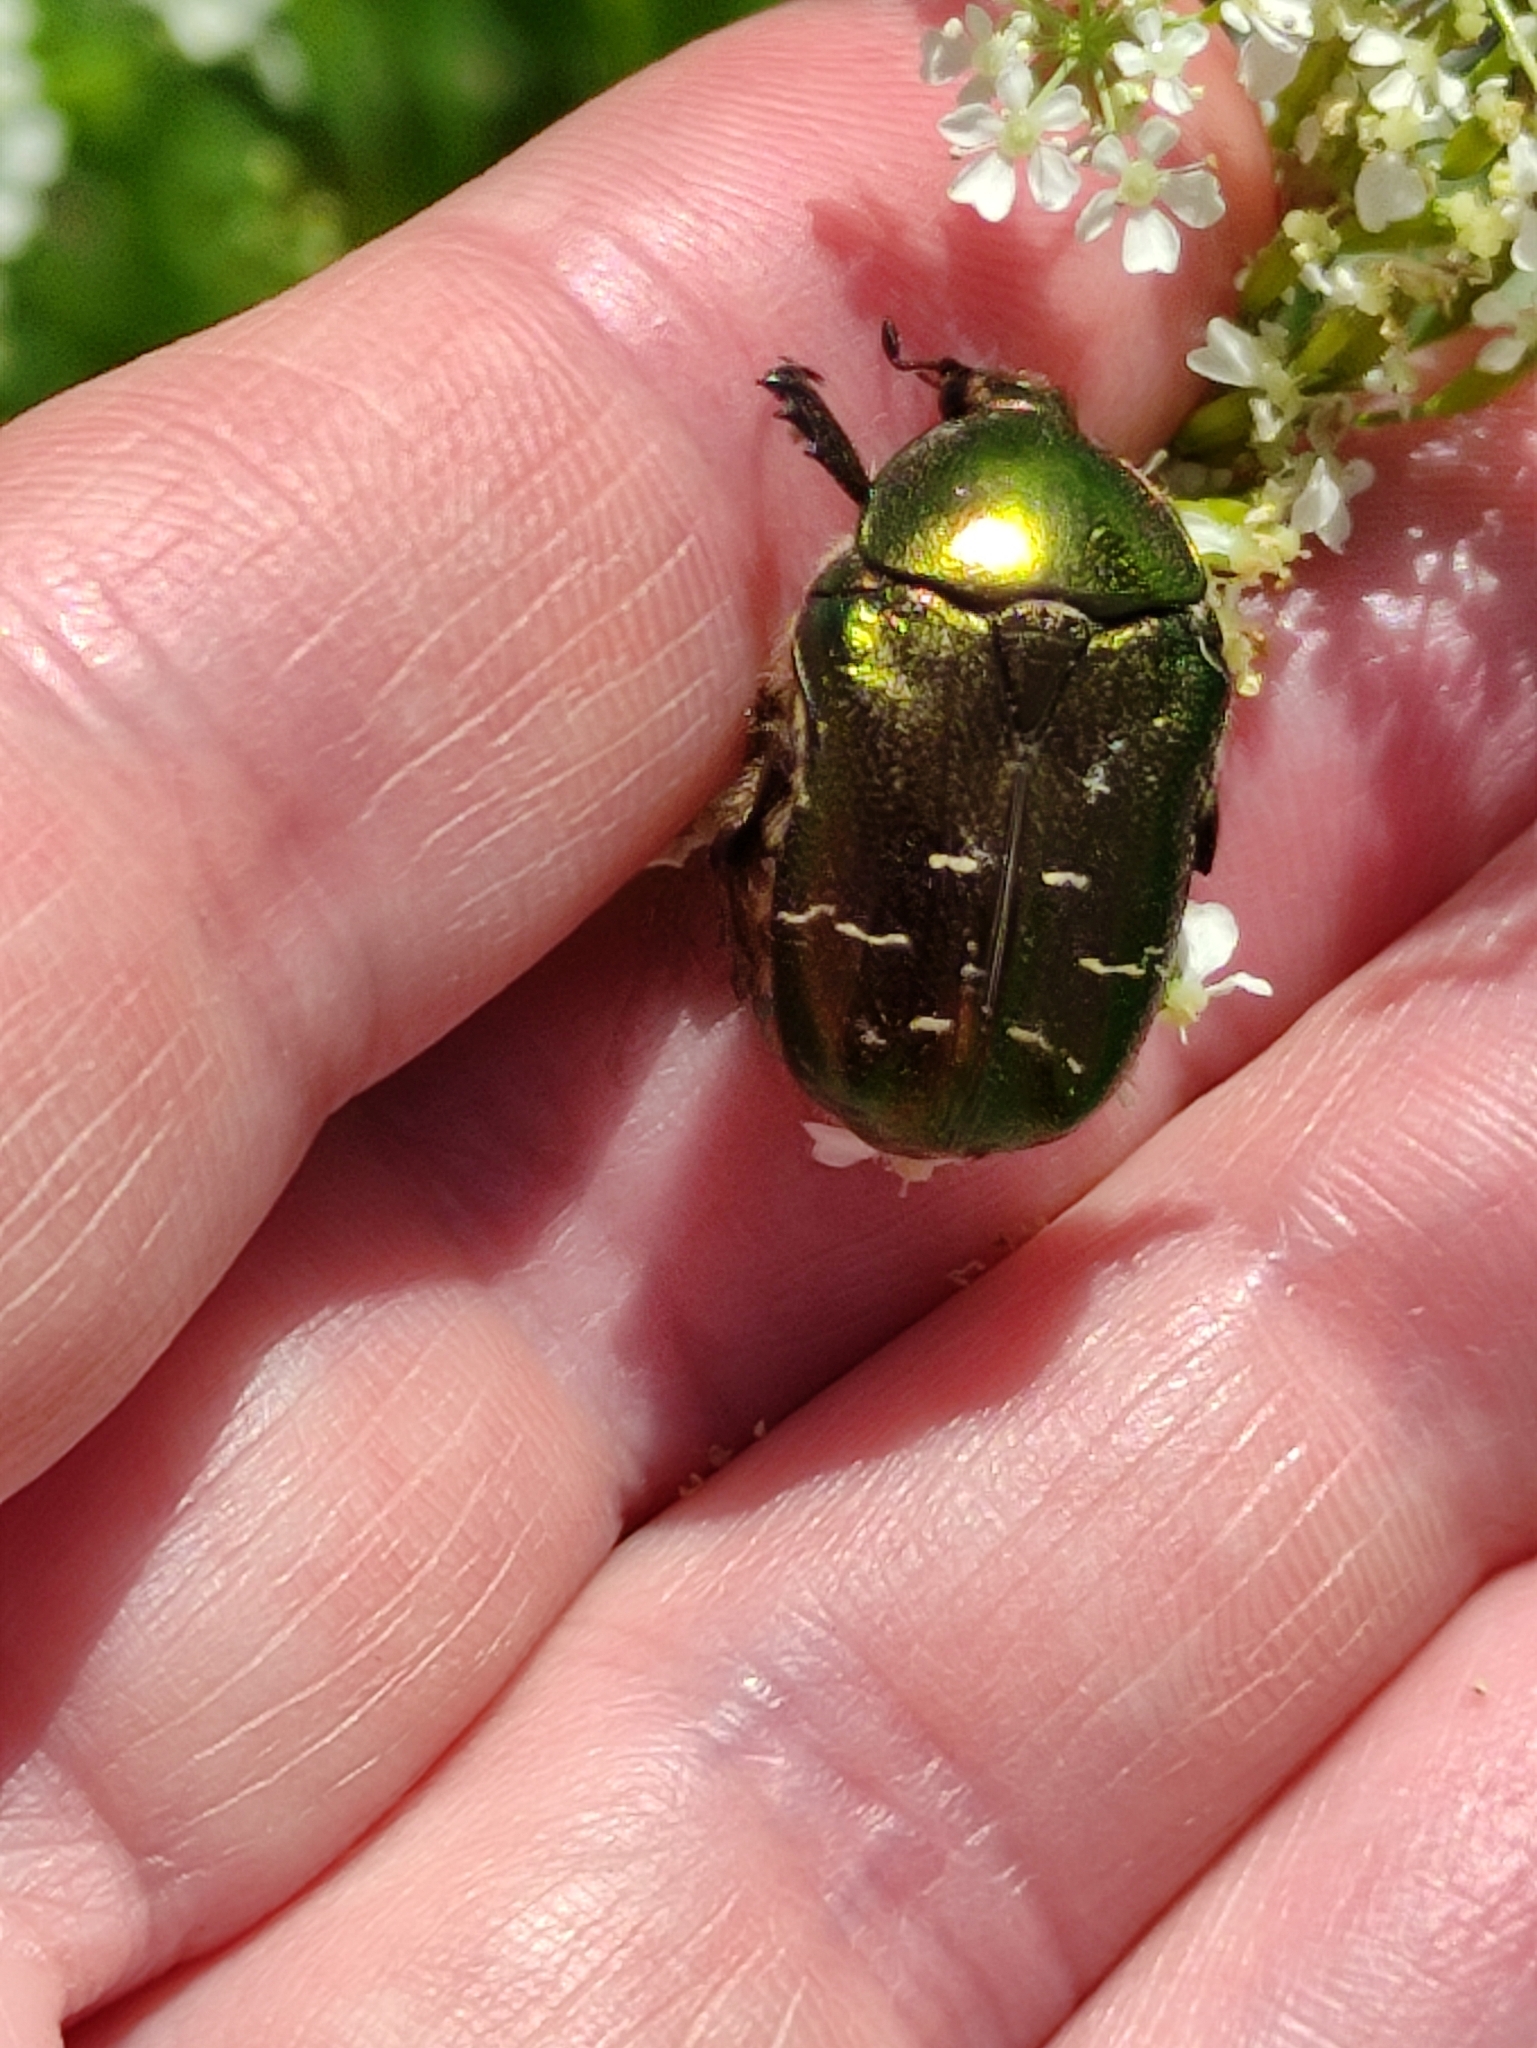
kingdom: Animalia
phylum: Arthropoda
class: Insecta
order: Coleoptera
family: Scarabaeidae
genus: Cetonia
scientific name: Cetonia aurata
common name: Rose chafer
